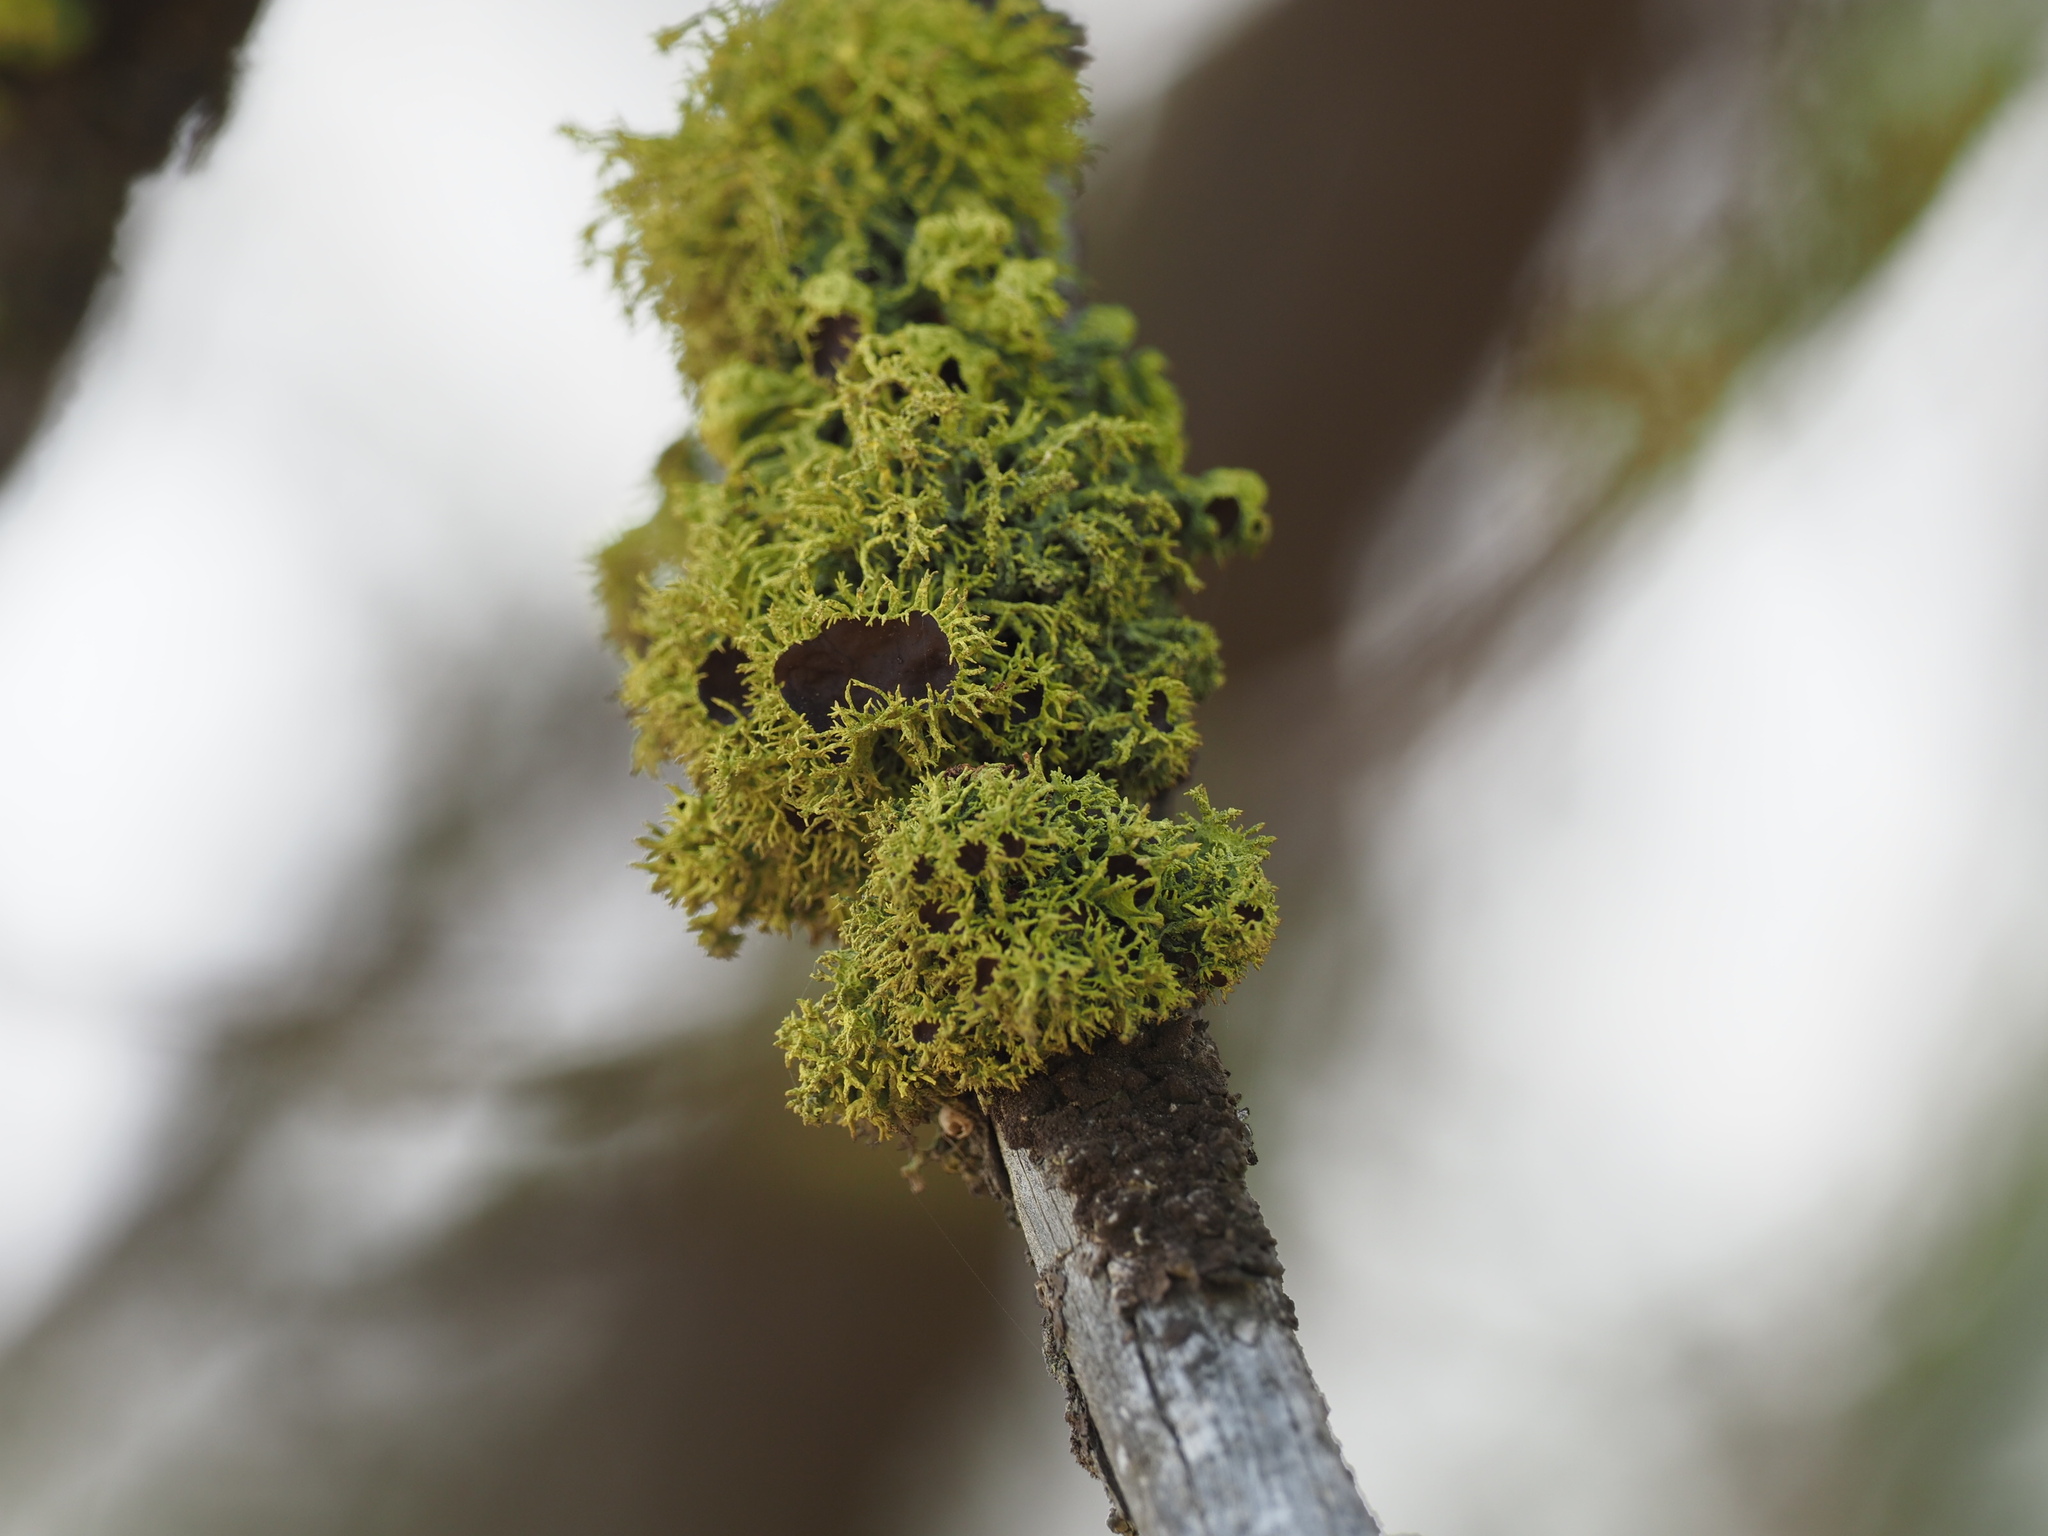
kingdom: Fungi
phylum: Ascomycota
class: Lecanoromycetes
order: Lecanorales
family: Parmeliaceae
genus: Letharia
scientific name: Letharia columbiana
